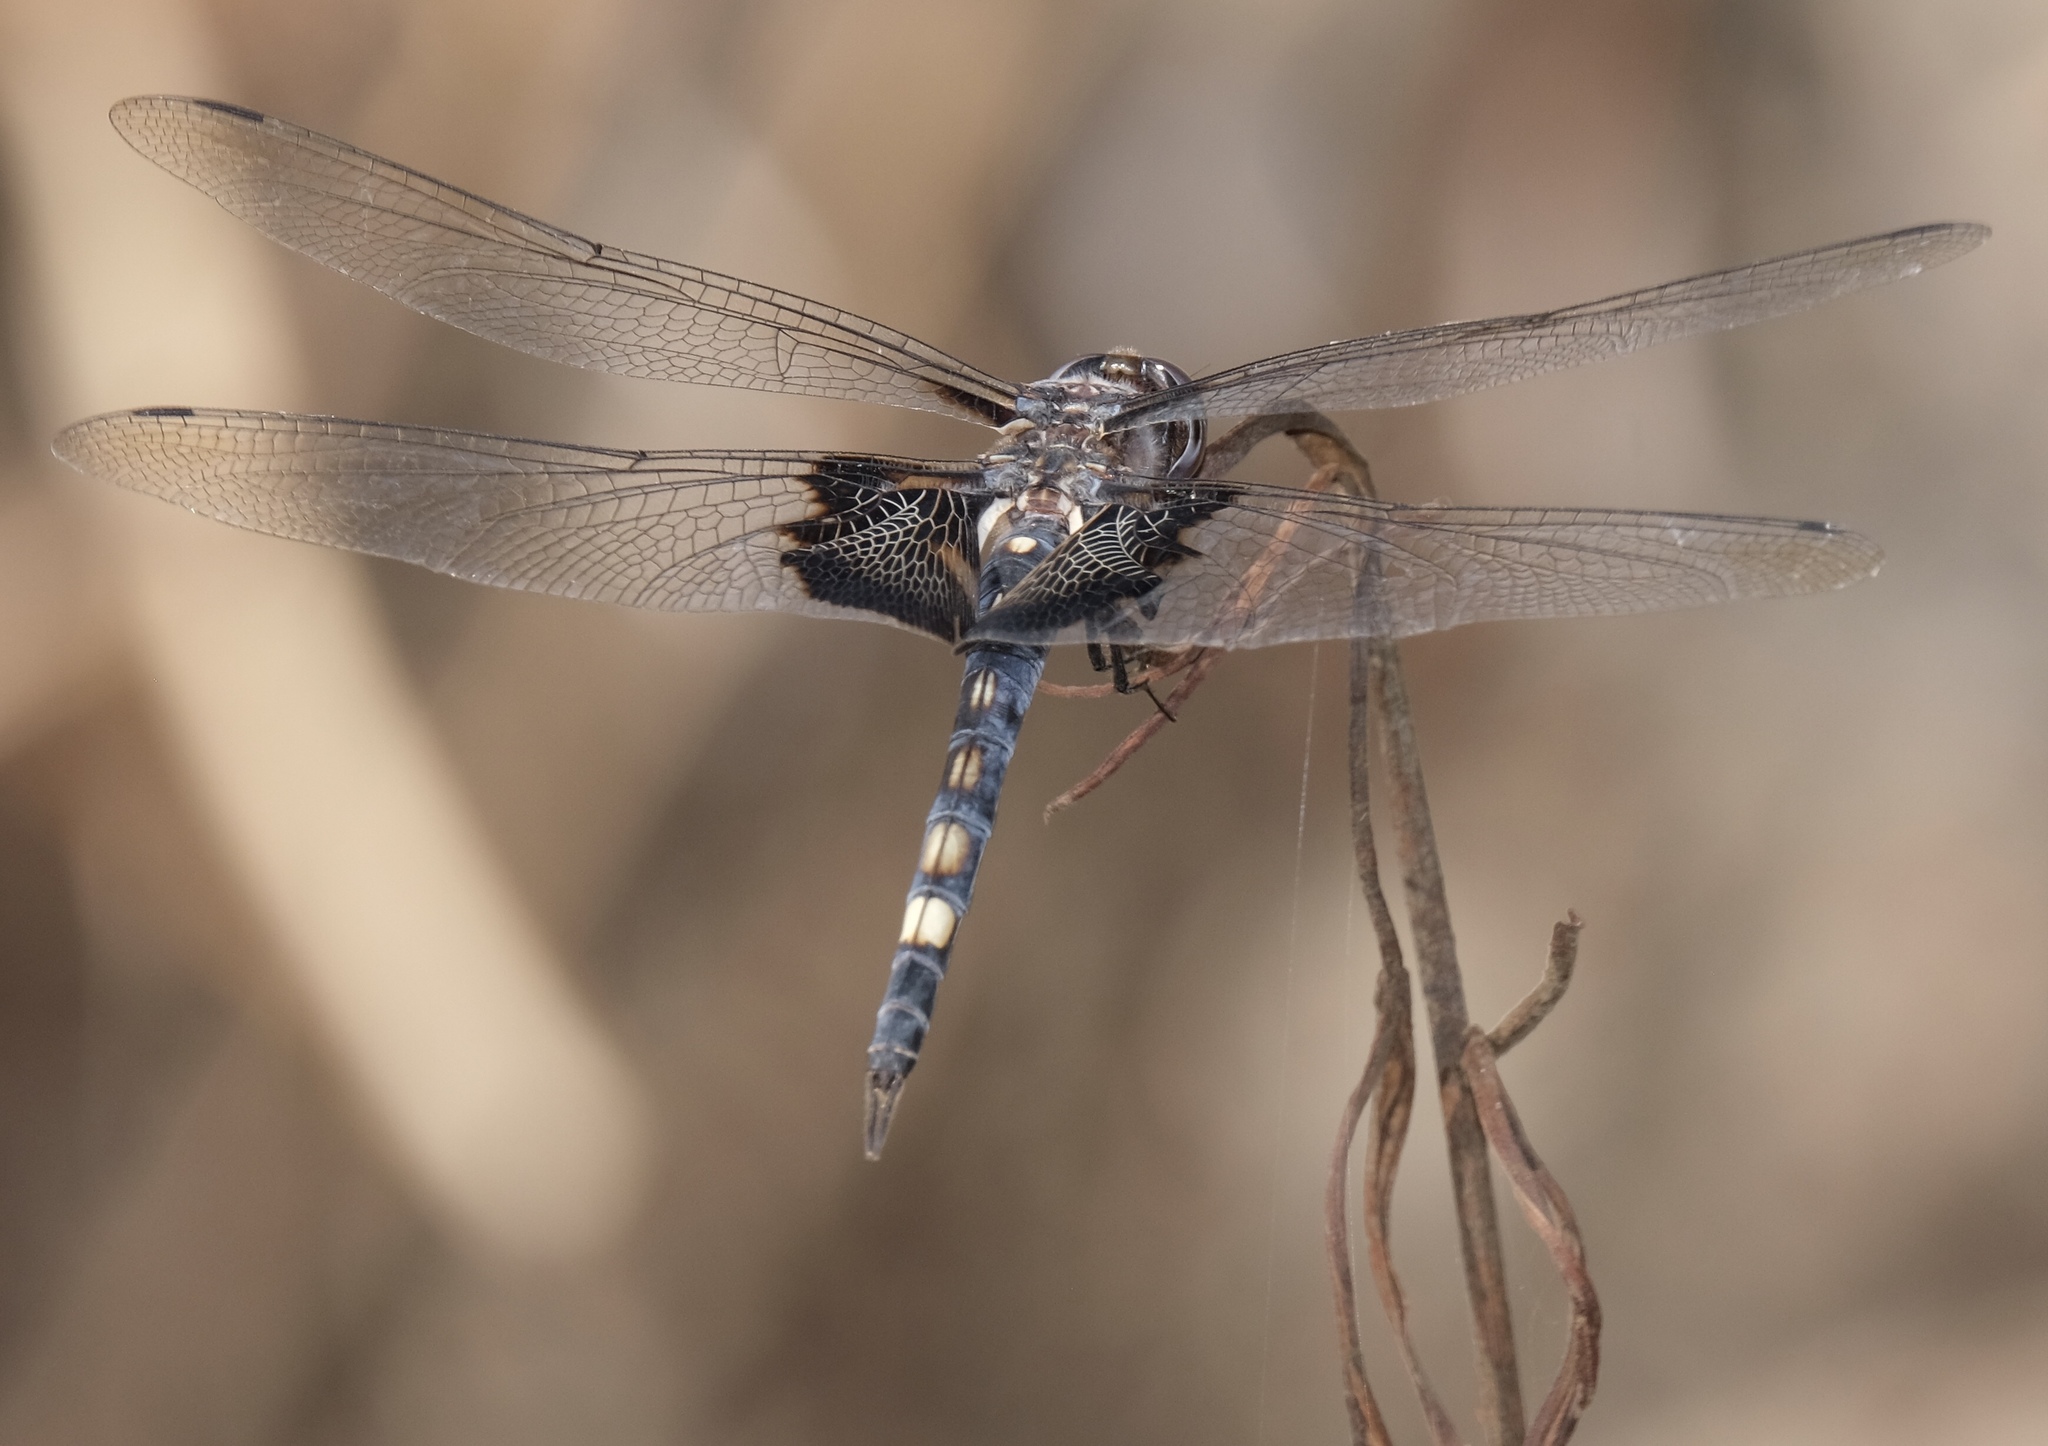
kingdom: Animalia
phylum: Arthropoda
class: Insecta
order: Odonata
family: Libellulidae
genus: Tramea
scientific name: Tramea lacerata
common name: Black saddlebags
